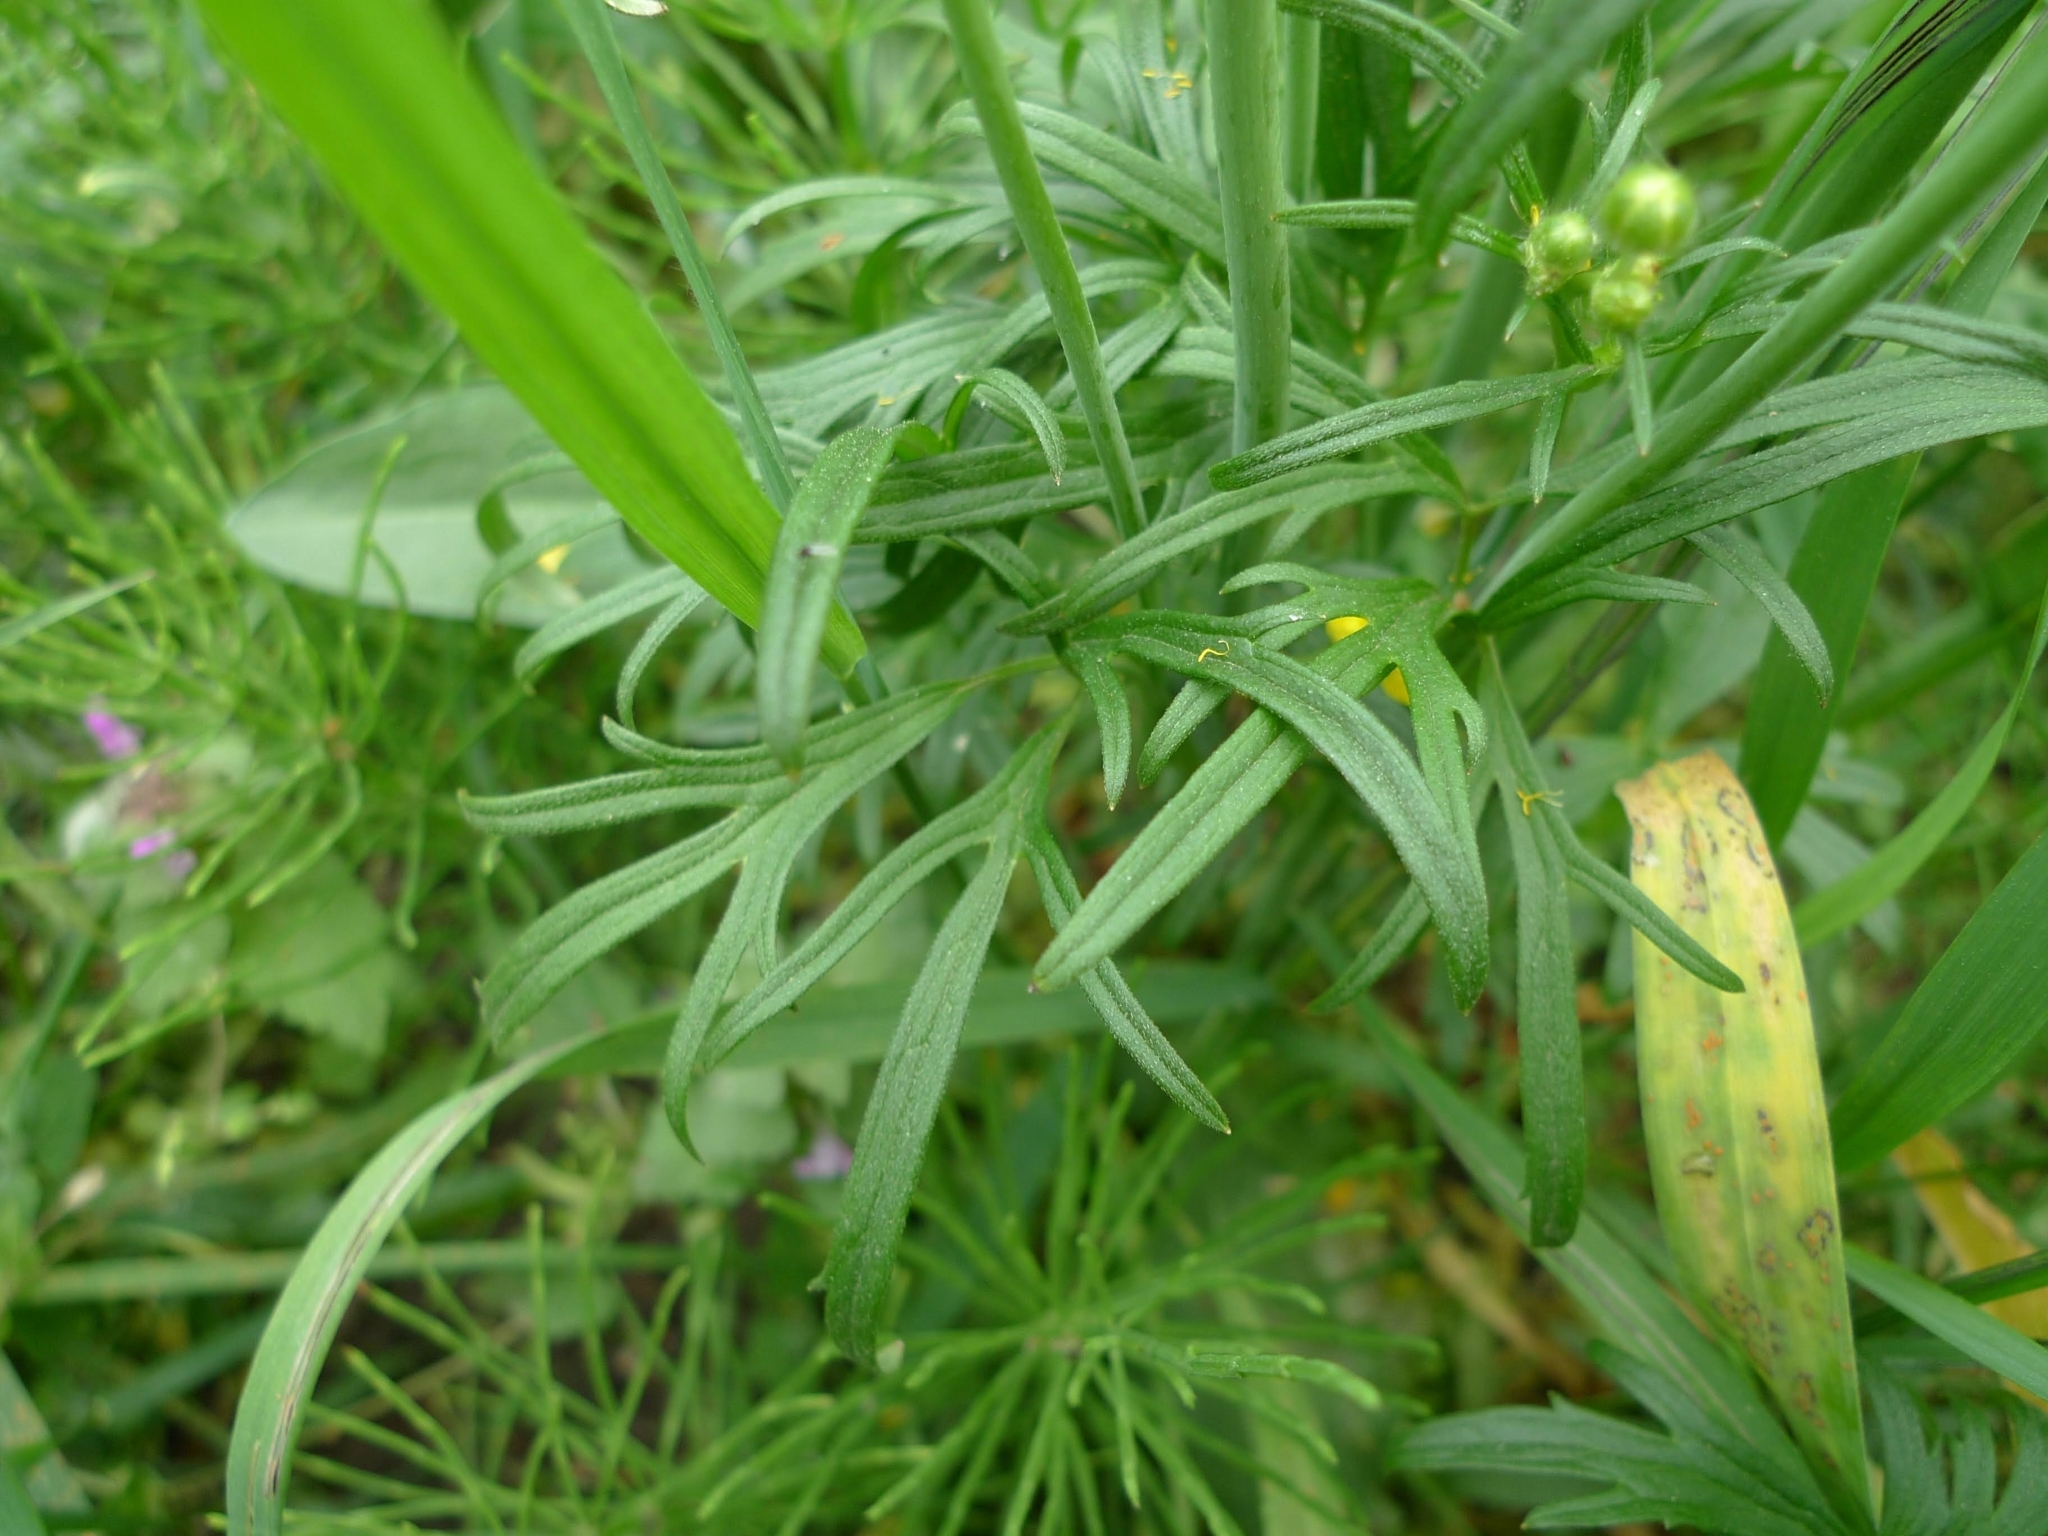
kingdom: Plantae
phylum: Tracheophyta
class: Magnoliopsida
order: Ranunculales
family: Ranunculaceae
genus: Ranunculus
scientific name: Ranunculus acris
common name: Meadow buttercup
